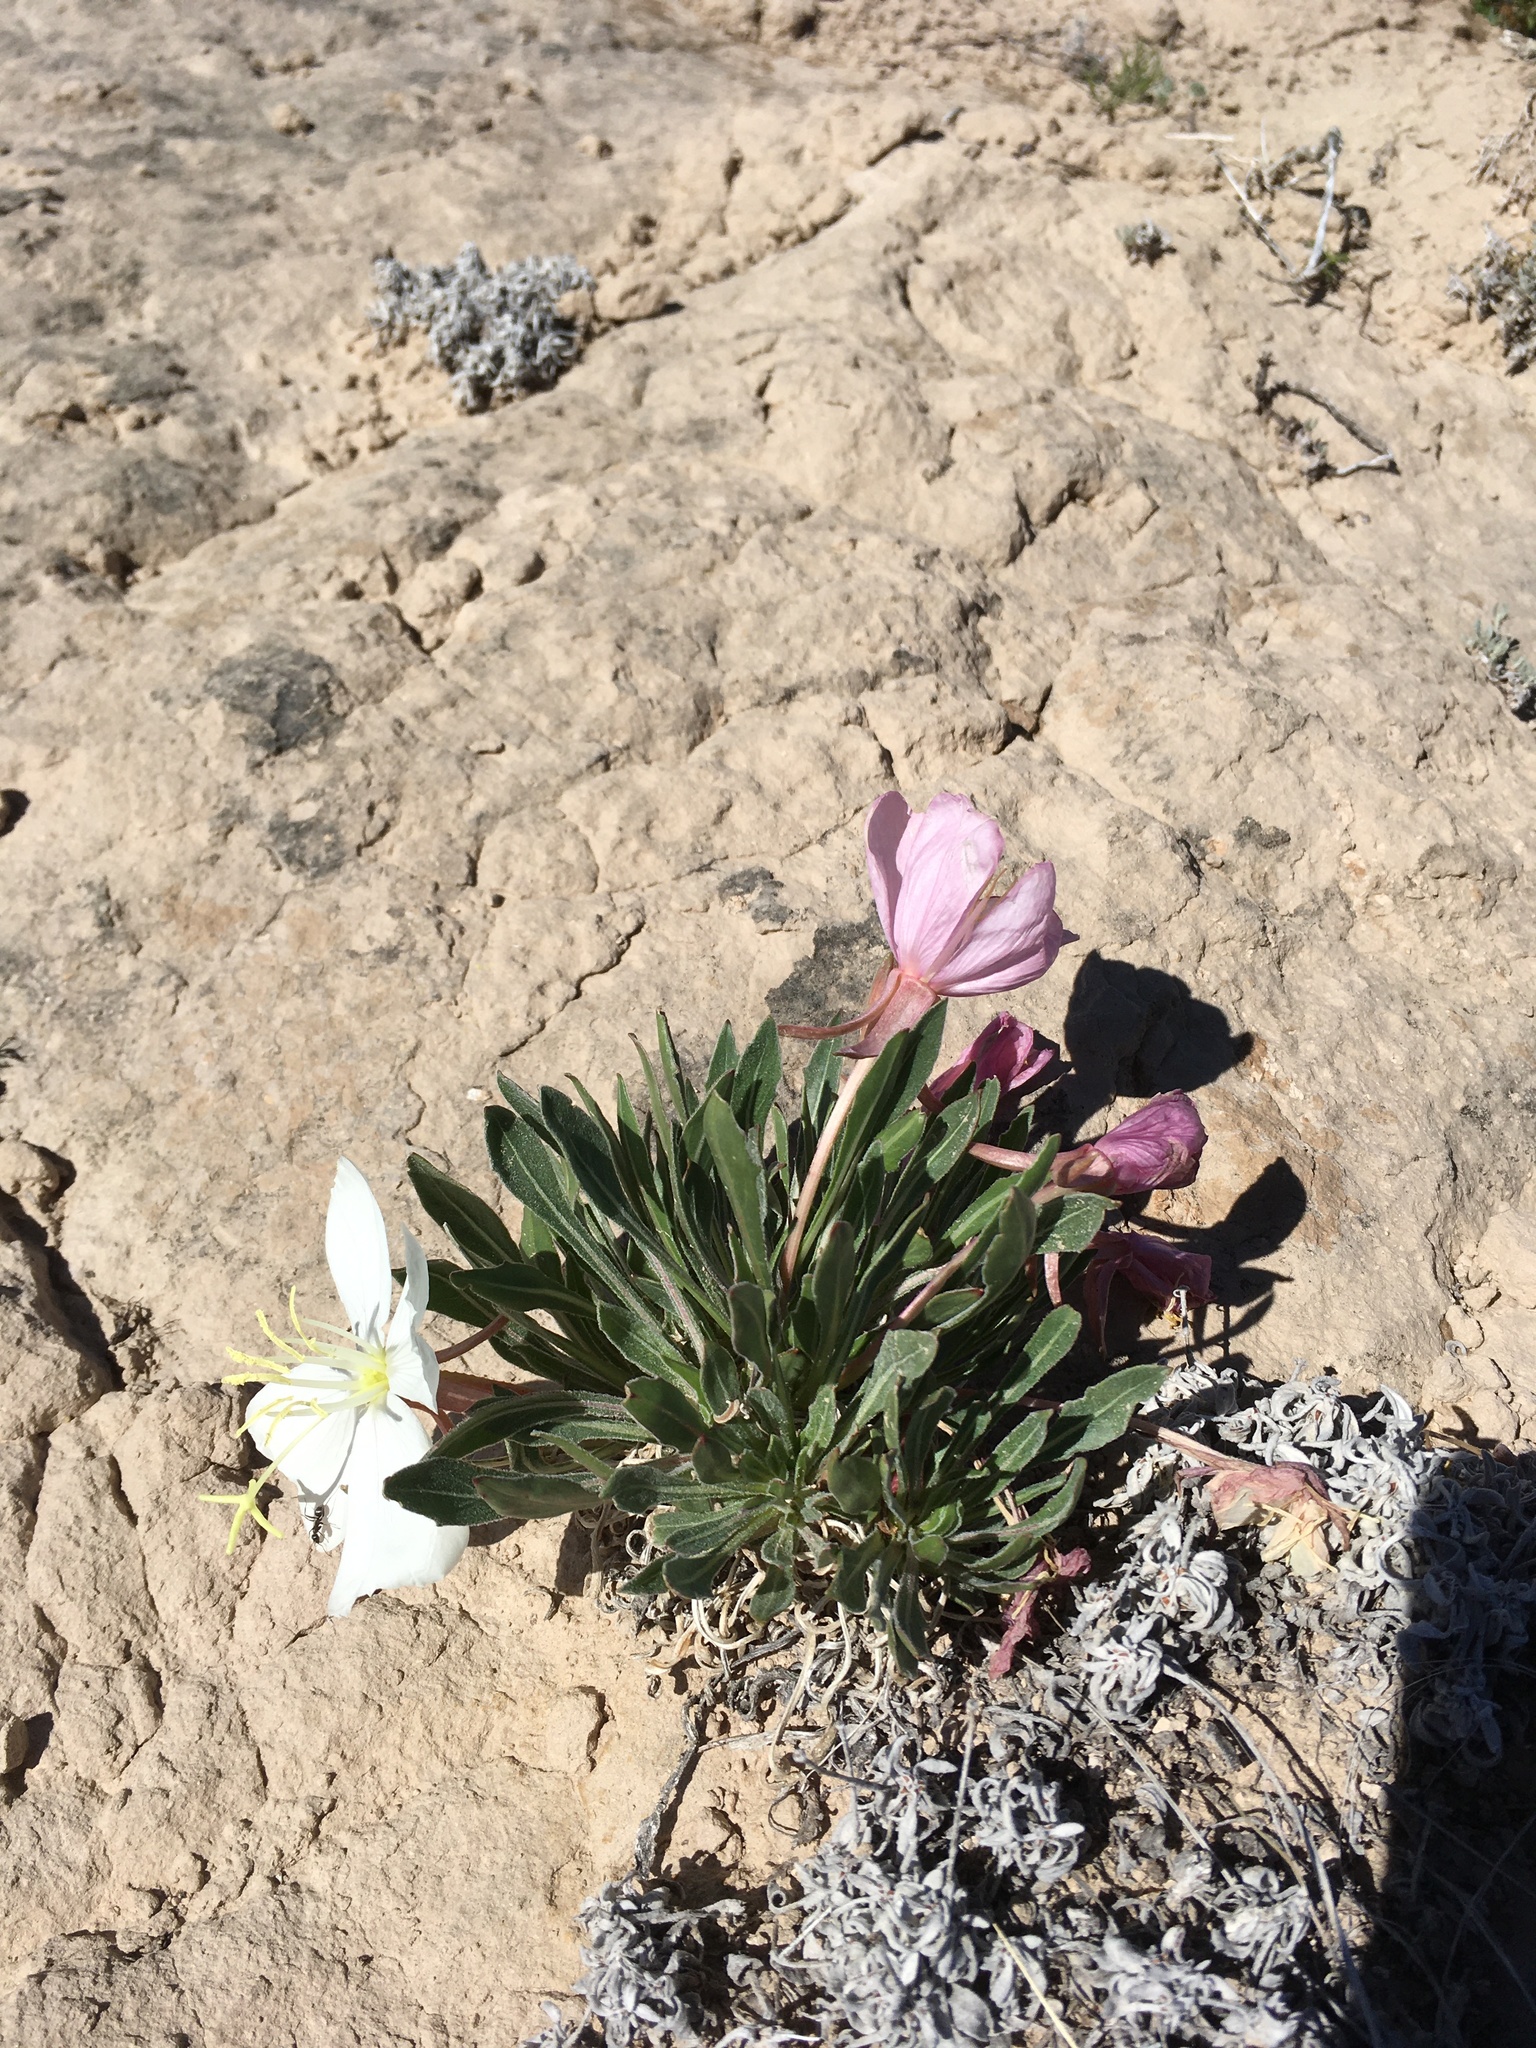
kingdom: Plantae
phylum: Tracheophyta
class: Magnoliopsida
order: Myrtales
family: Onagraceae
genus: Oenothera
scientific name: Oenothera cespitosa
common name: Tufted evening-primrose
